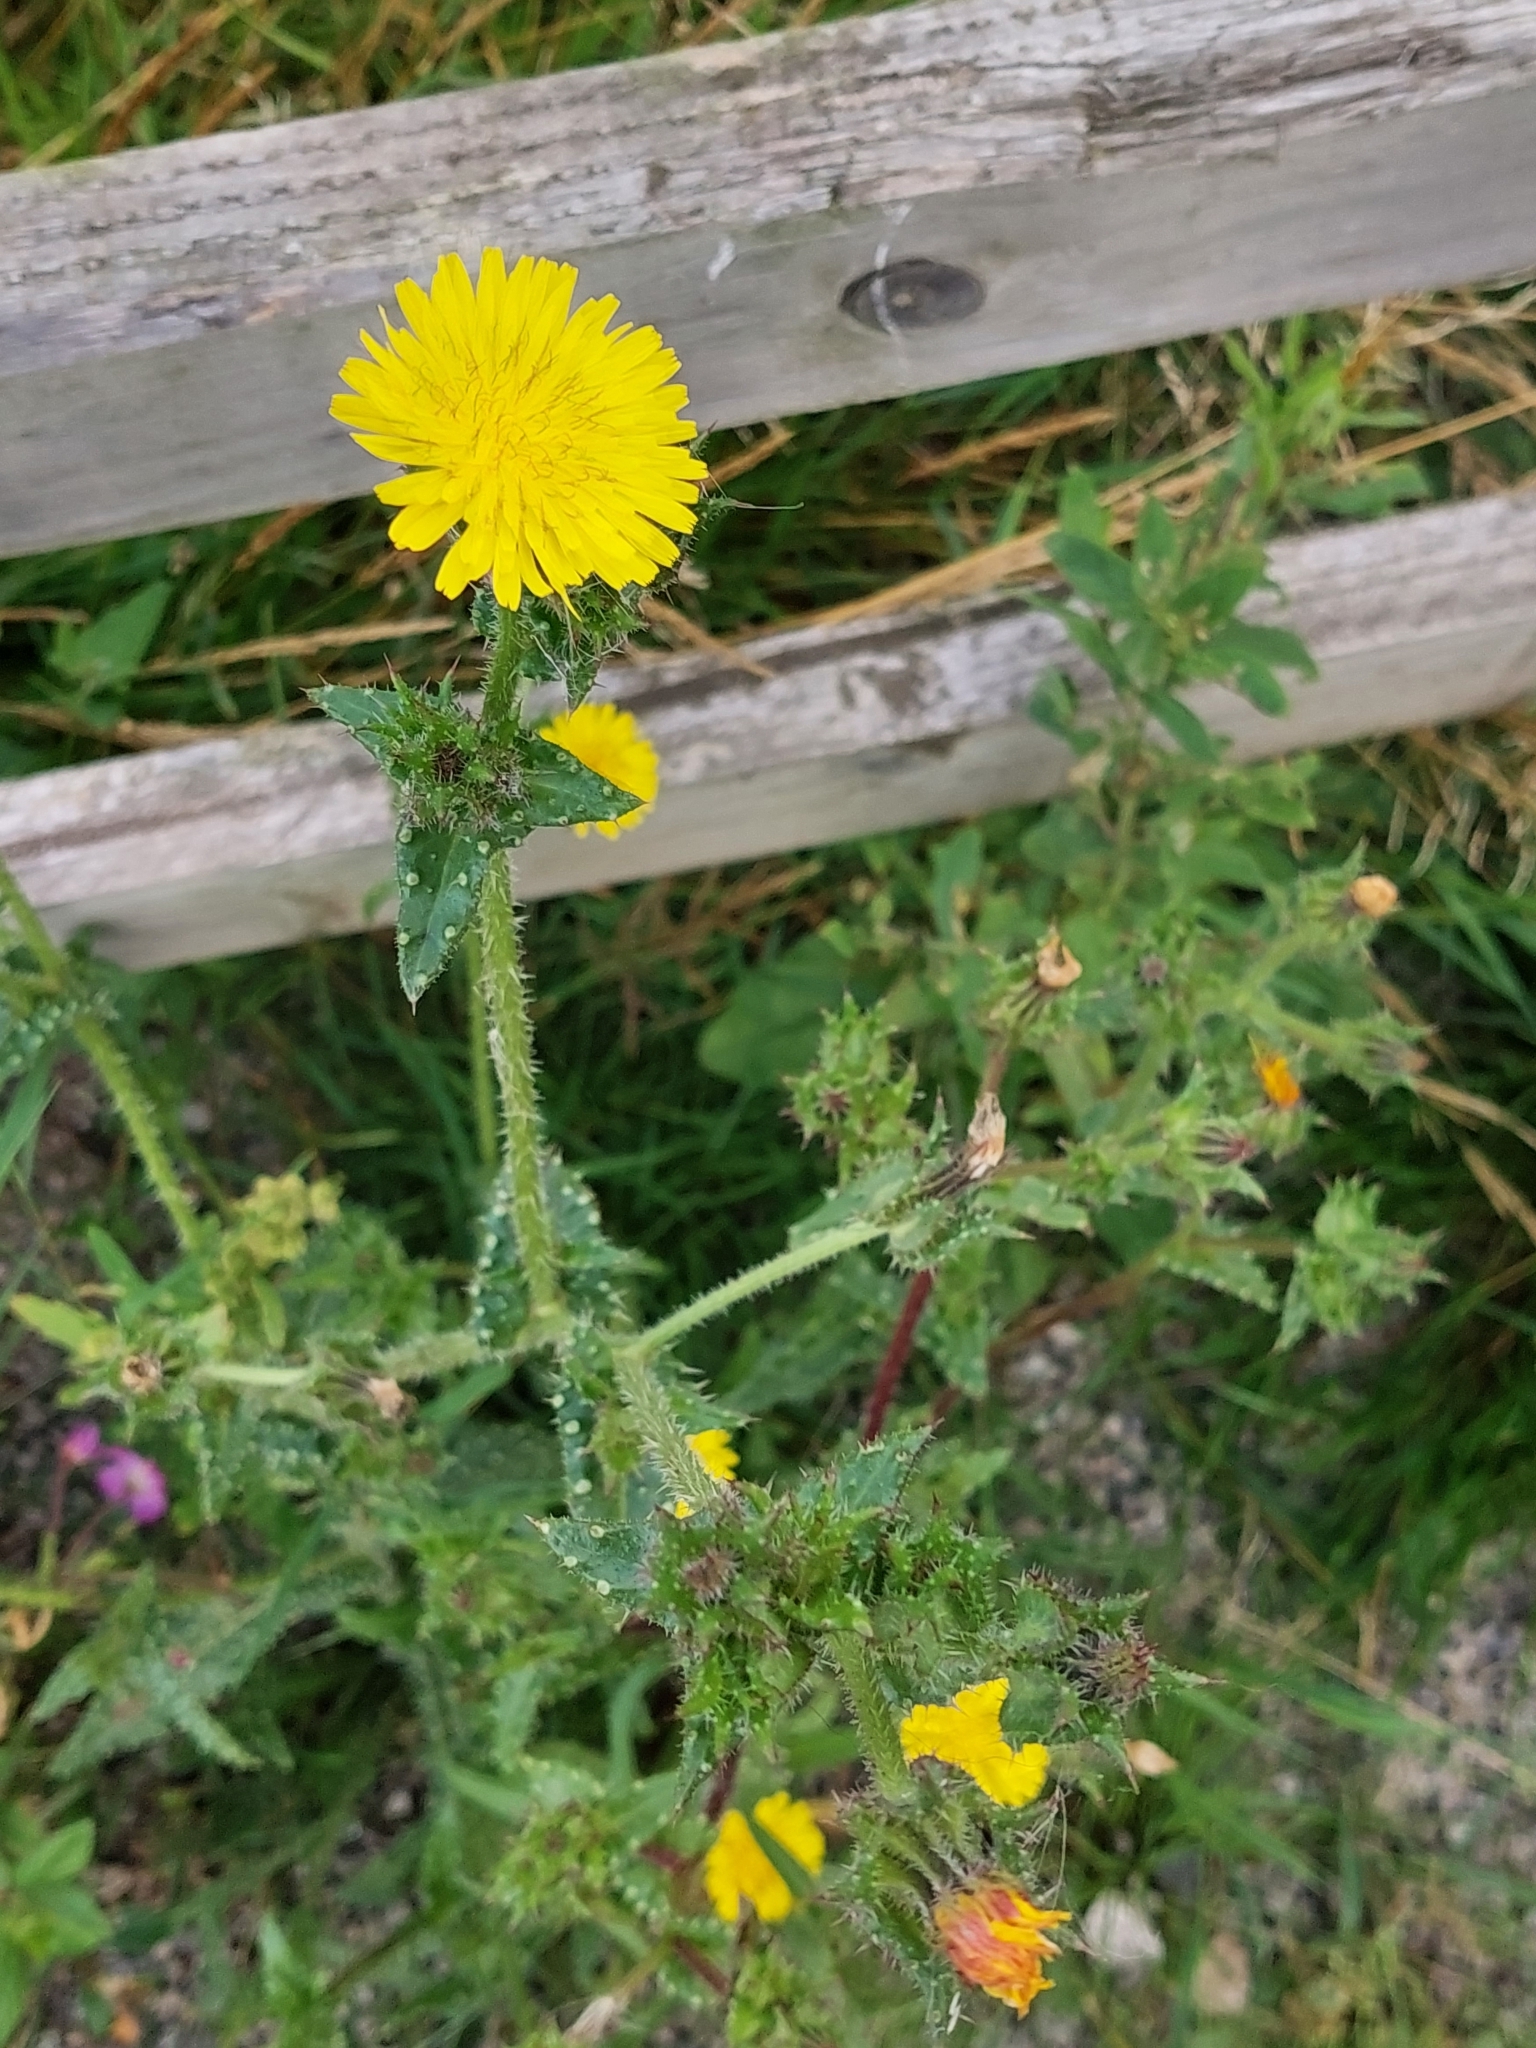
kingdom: Plantae
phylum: Tracheophyta
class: Magnoliopsida
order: Asterales
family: Asteraceae
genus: Helminthotheca
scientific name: Helminthotheca echioides
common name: Ox-tongue
